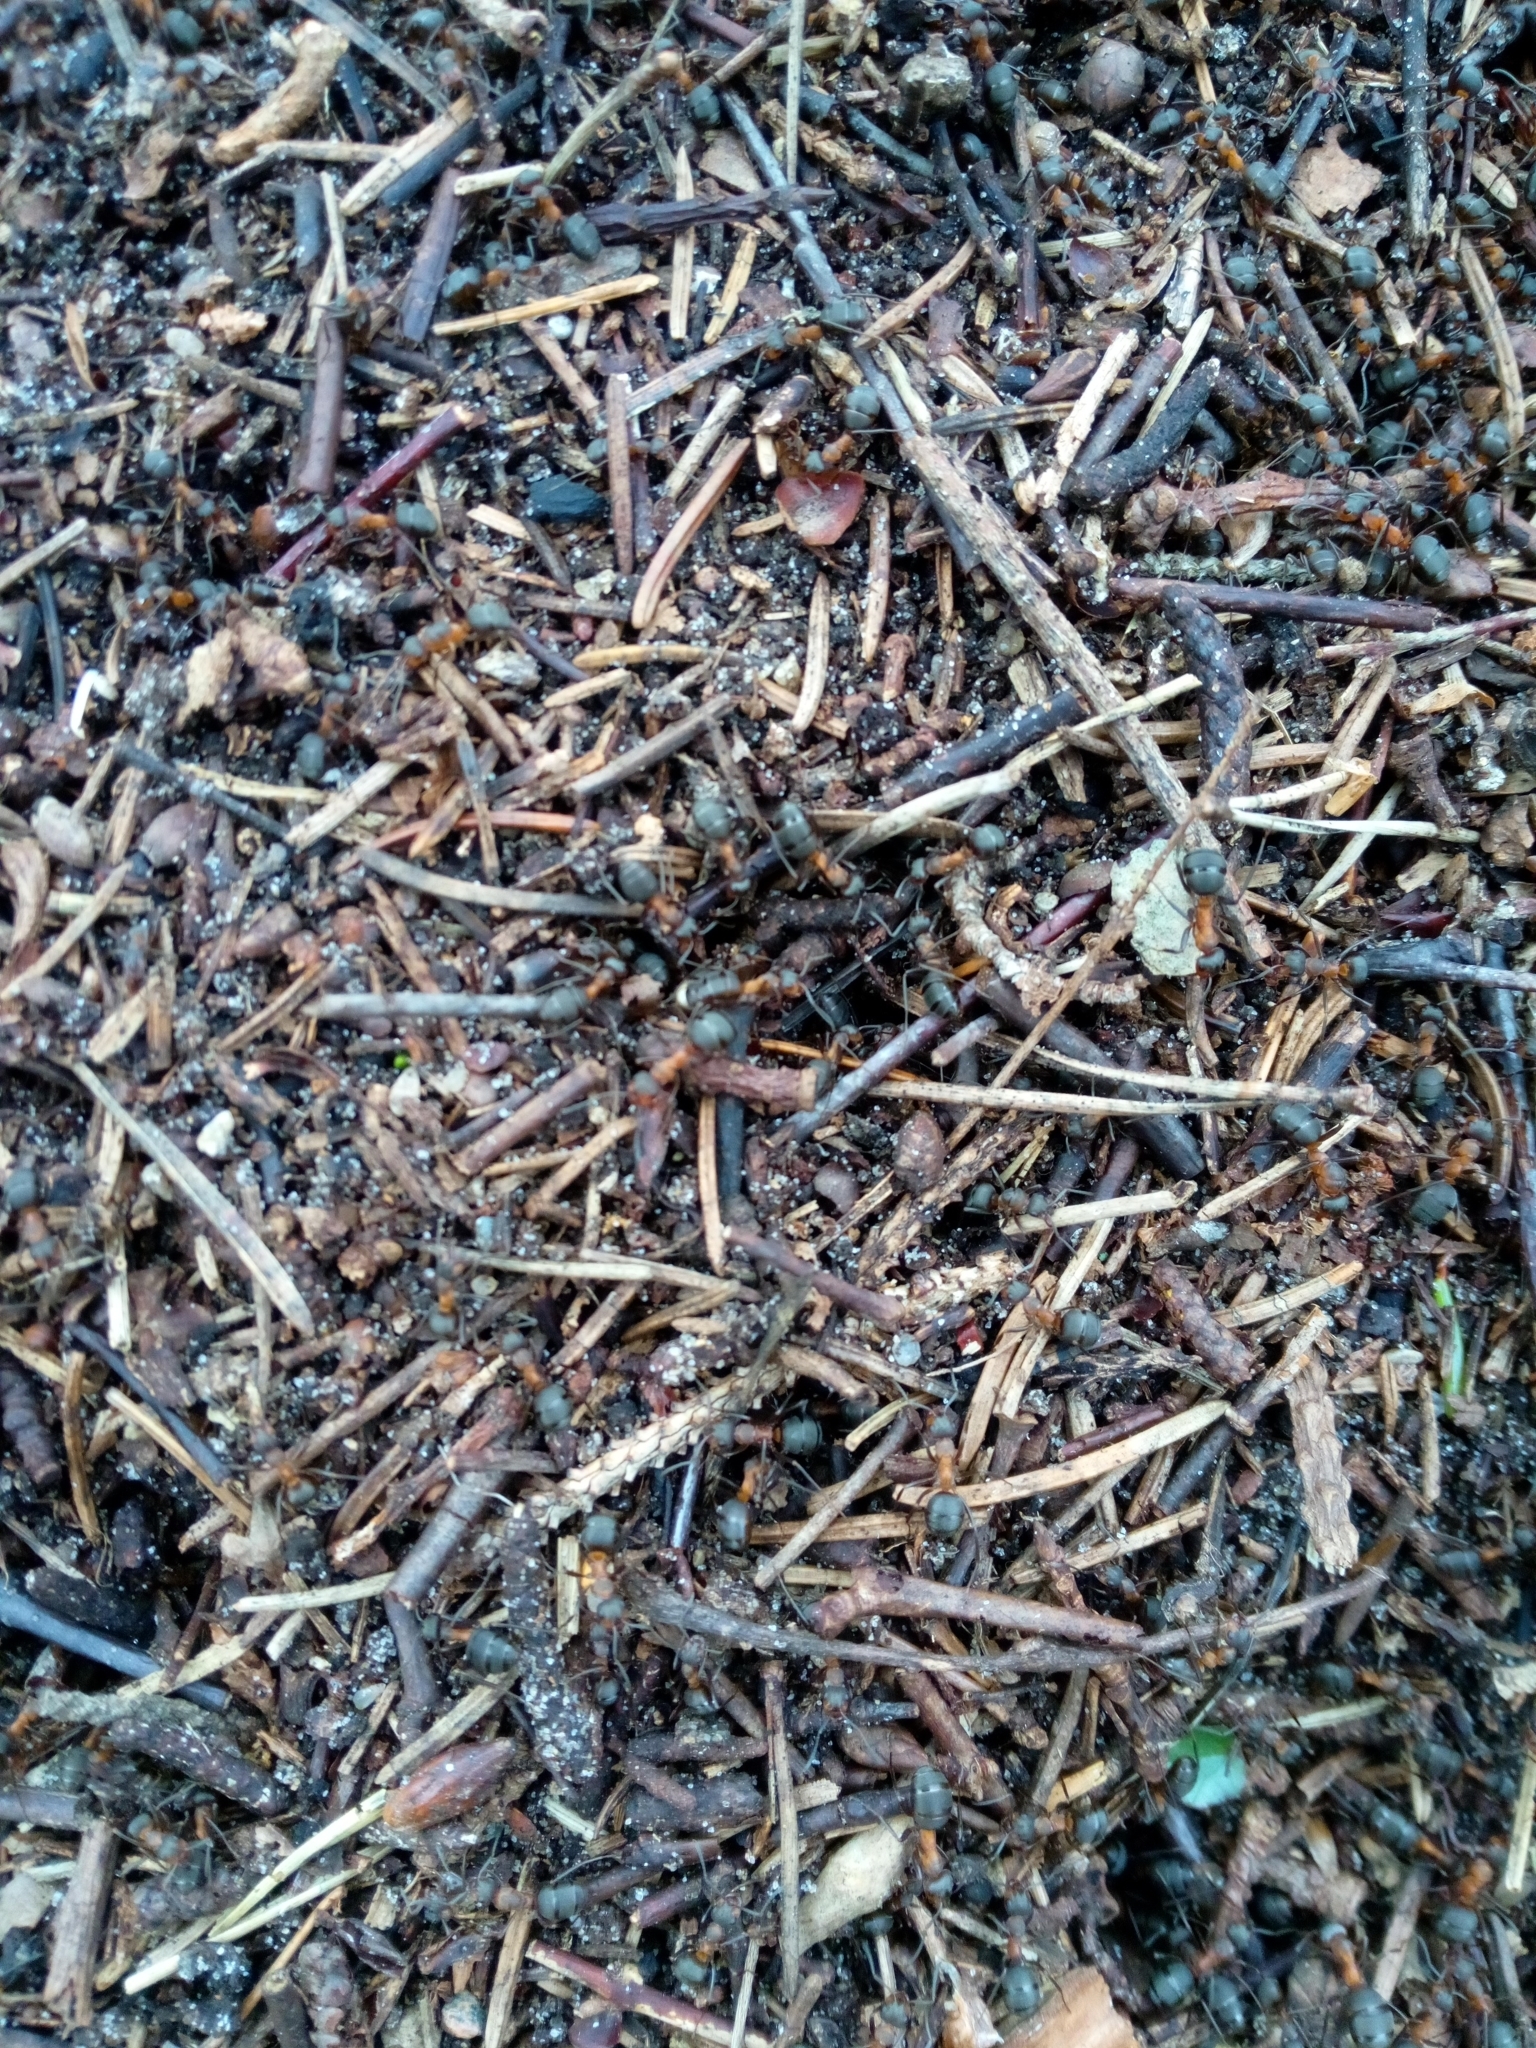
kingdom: Animalia
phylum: Arthropoda
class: Insecta
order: Hymenoptera
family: Formicidae
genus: Formica
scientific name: Formica
